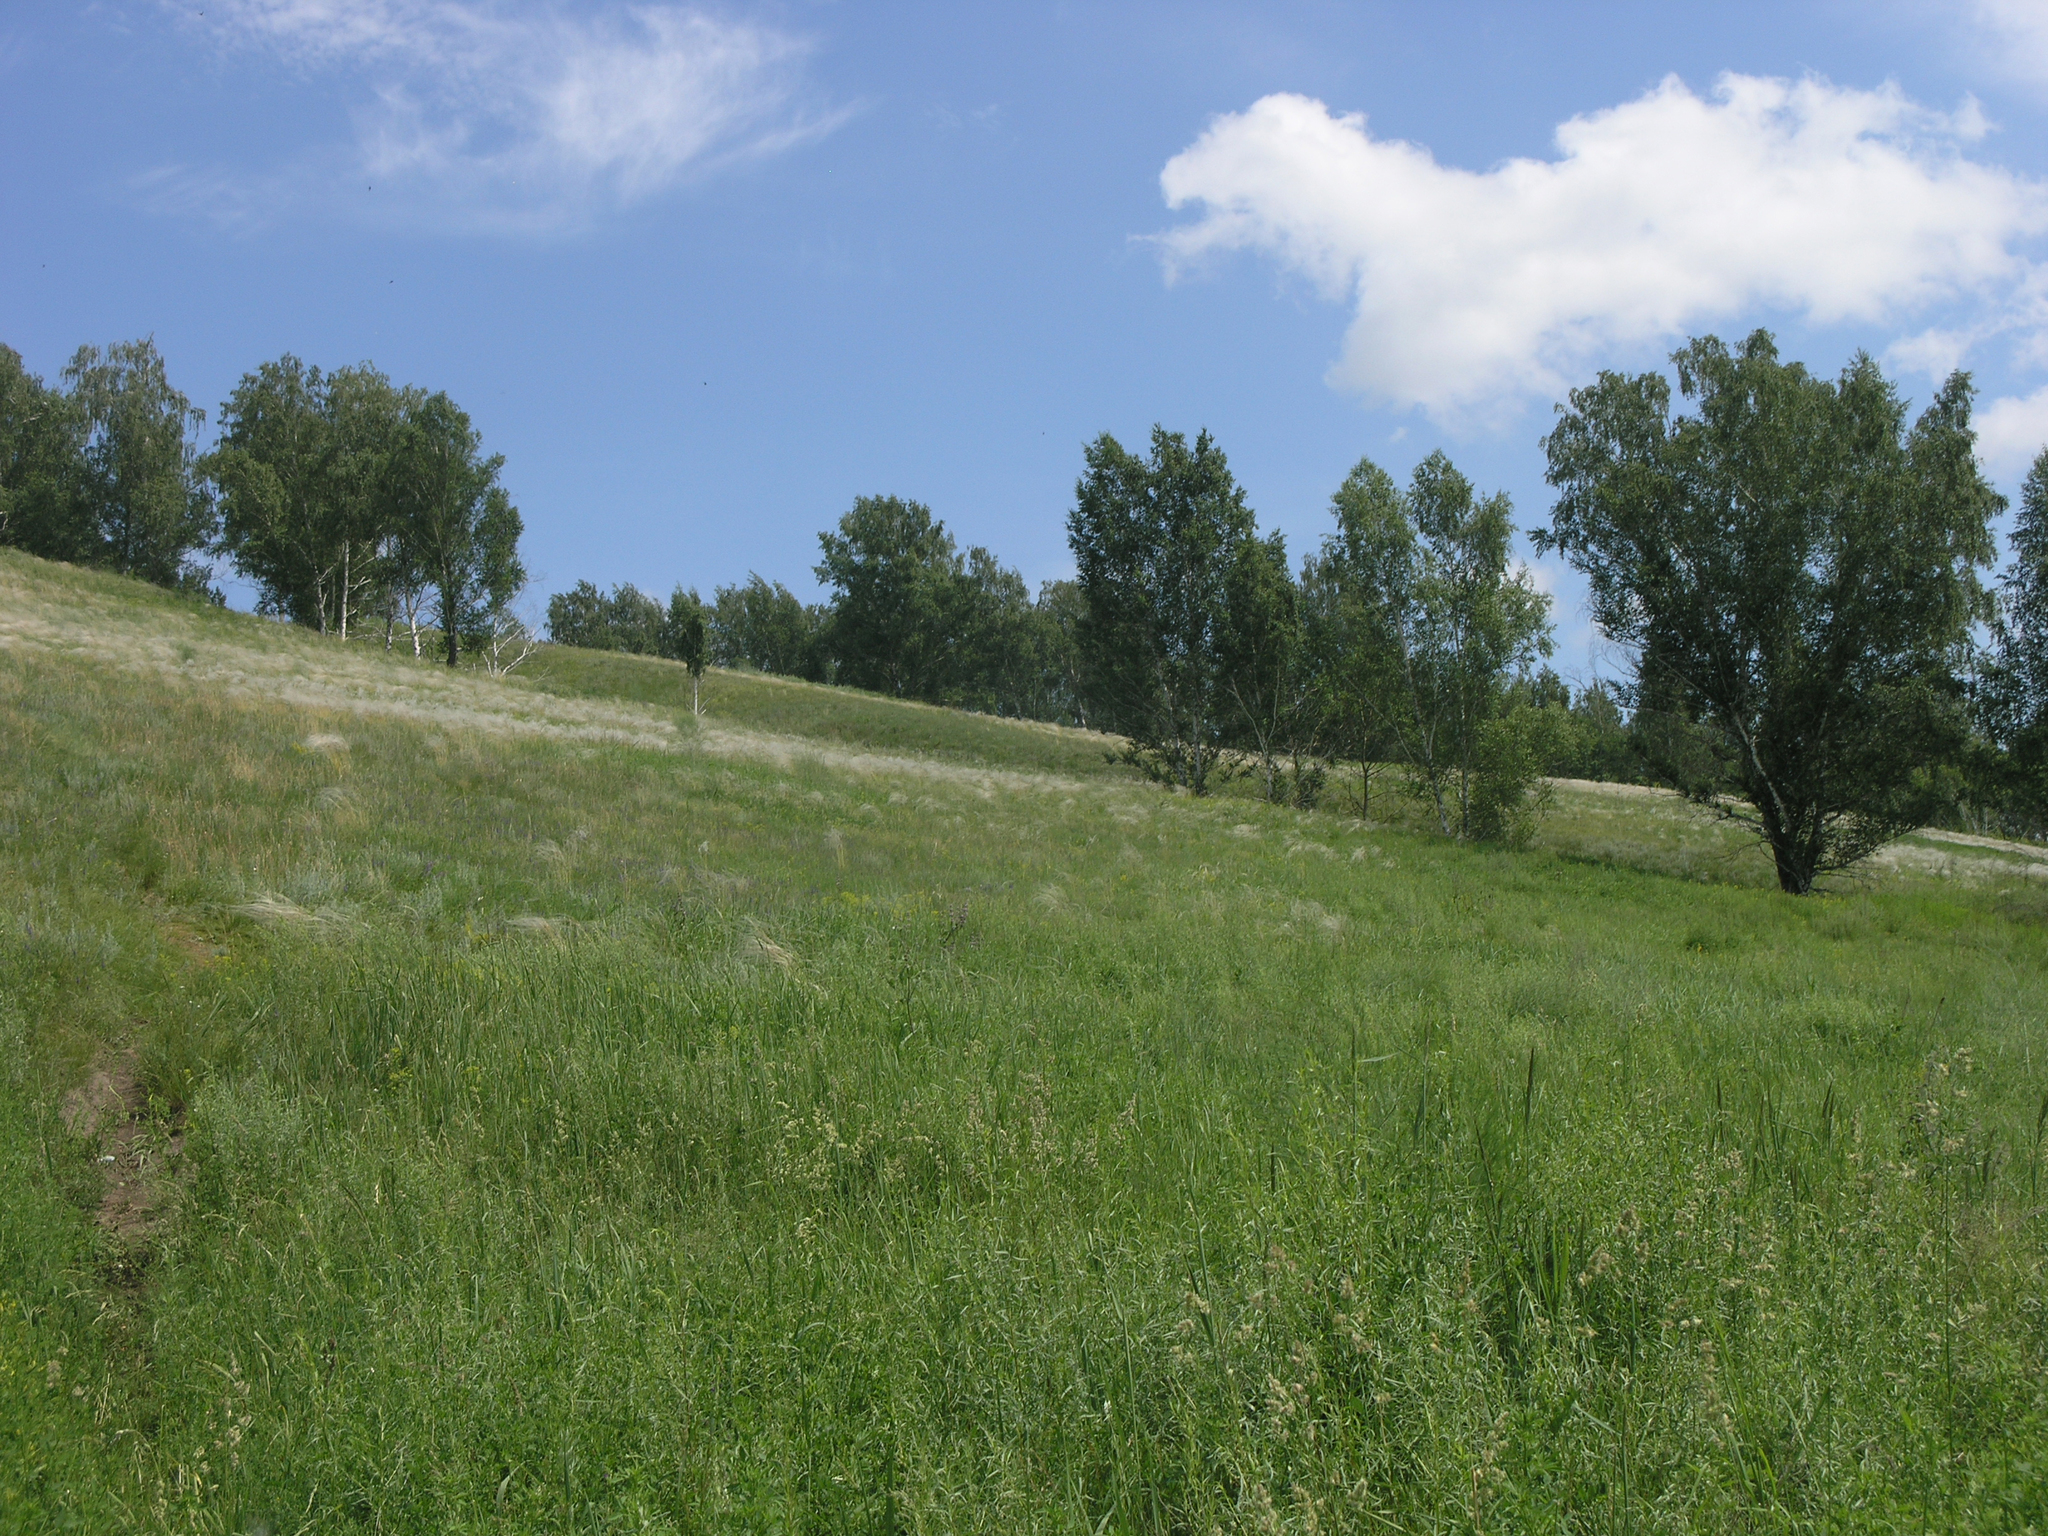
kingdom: Plantae
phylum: Tracheophyta
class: Liliopsida
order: Poales
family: Poaceae
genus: Stipa
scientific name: Stipa pennata
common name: European feather grass
